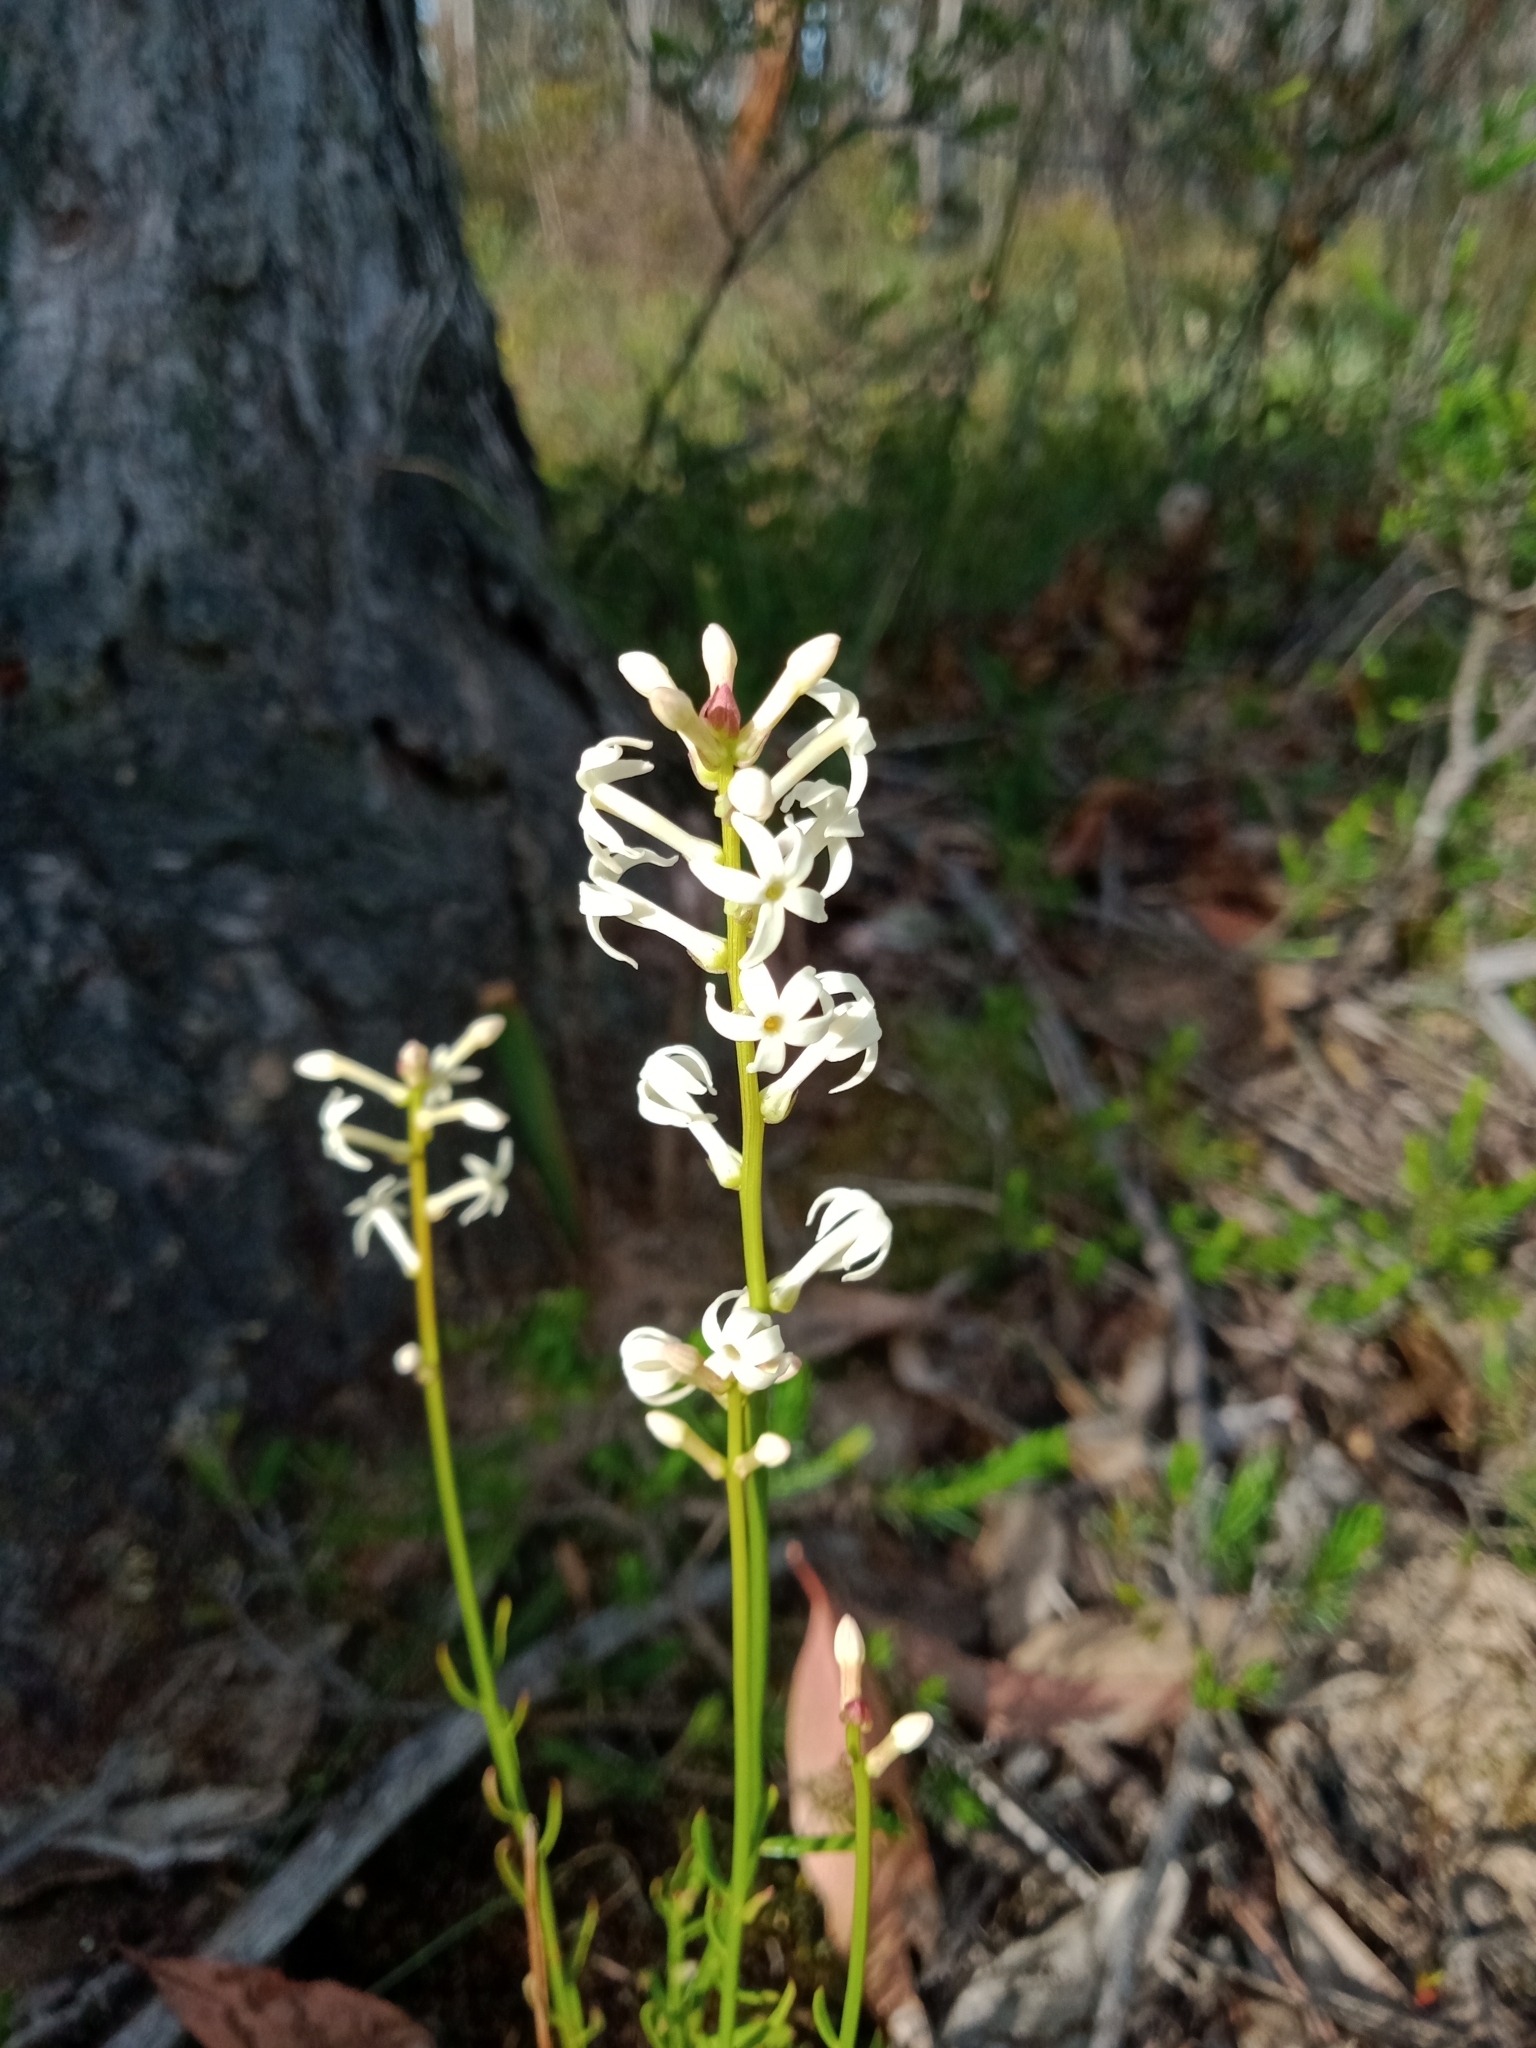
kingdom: Plantae
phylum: Tracheophyta
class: Magnoliopsida
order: Celastrales
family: Celastraceae
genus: Stackhousia
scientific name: Stackhousia monogyna
